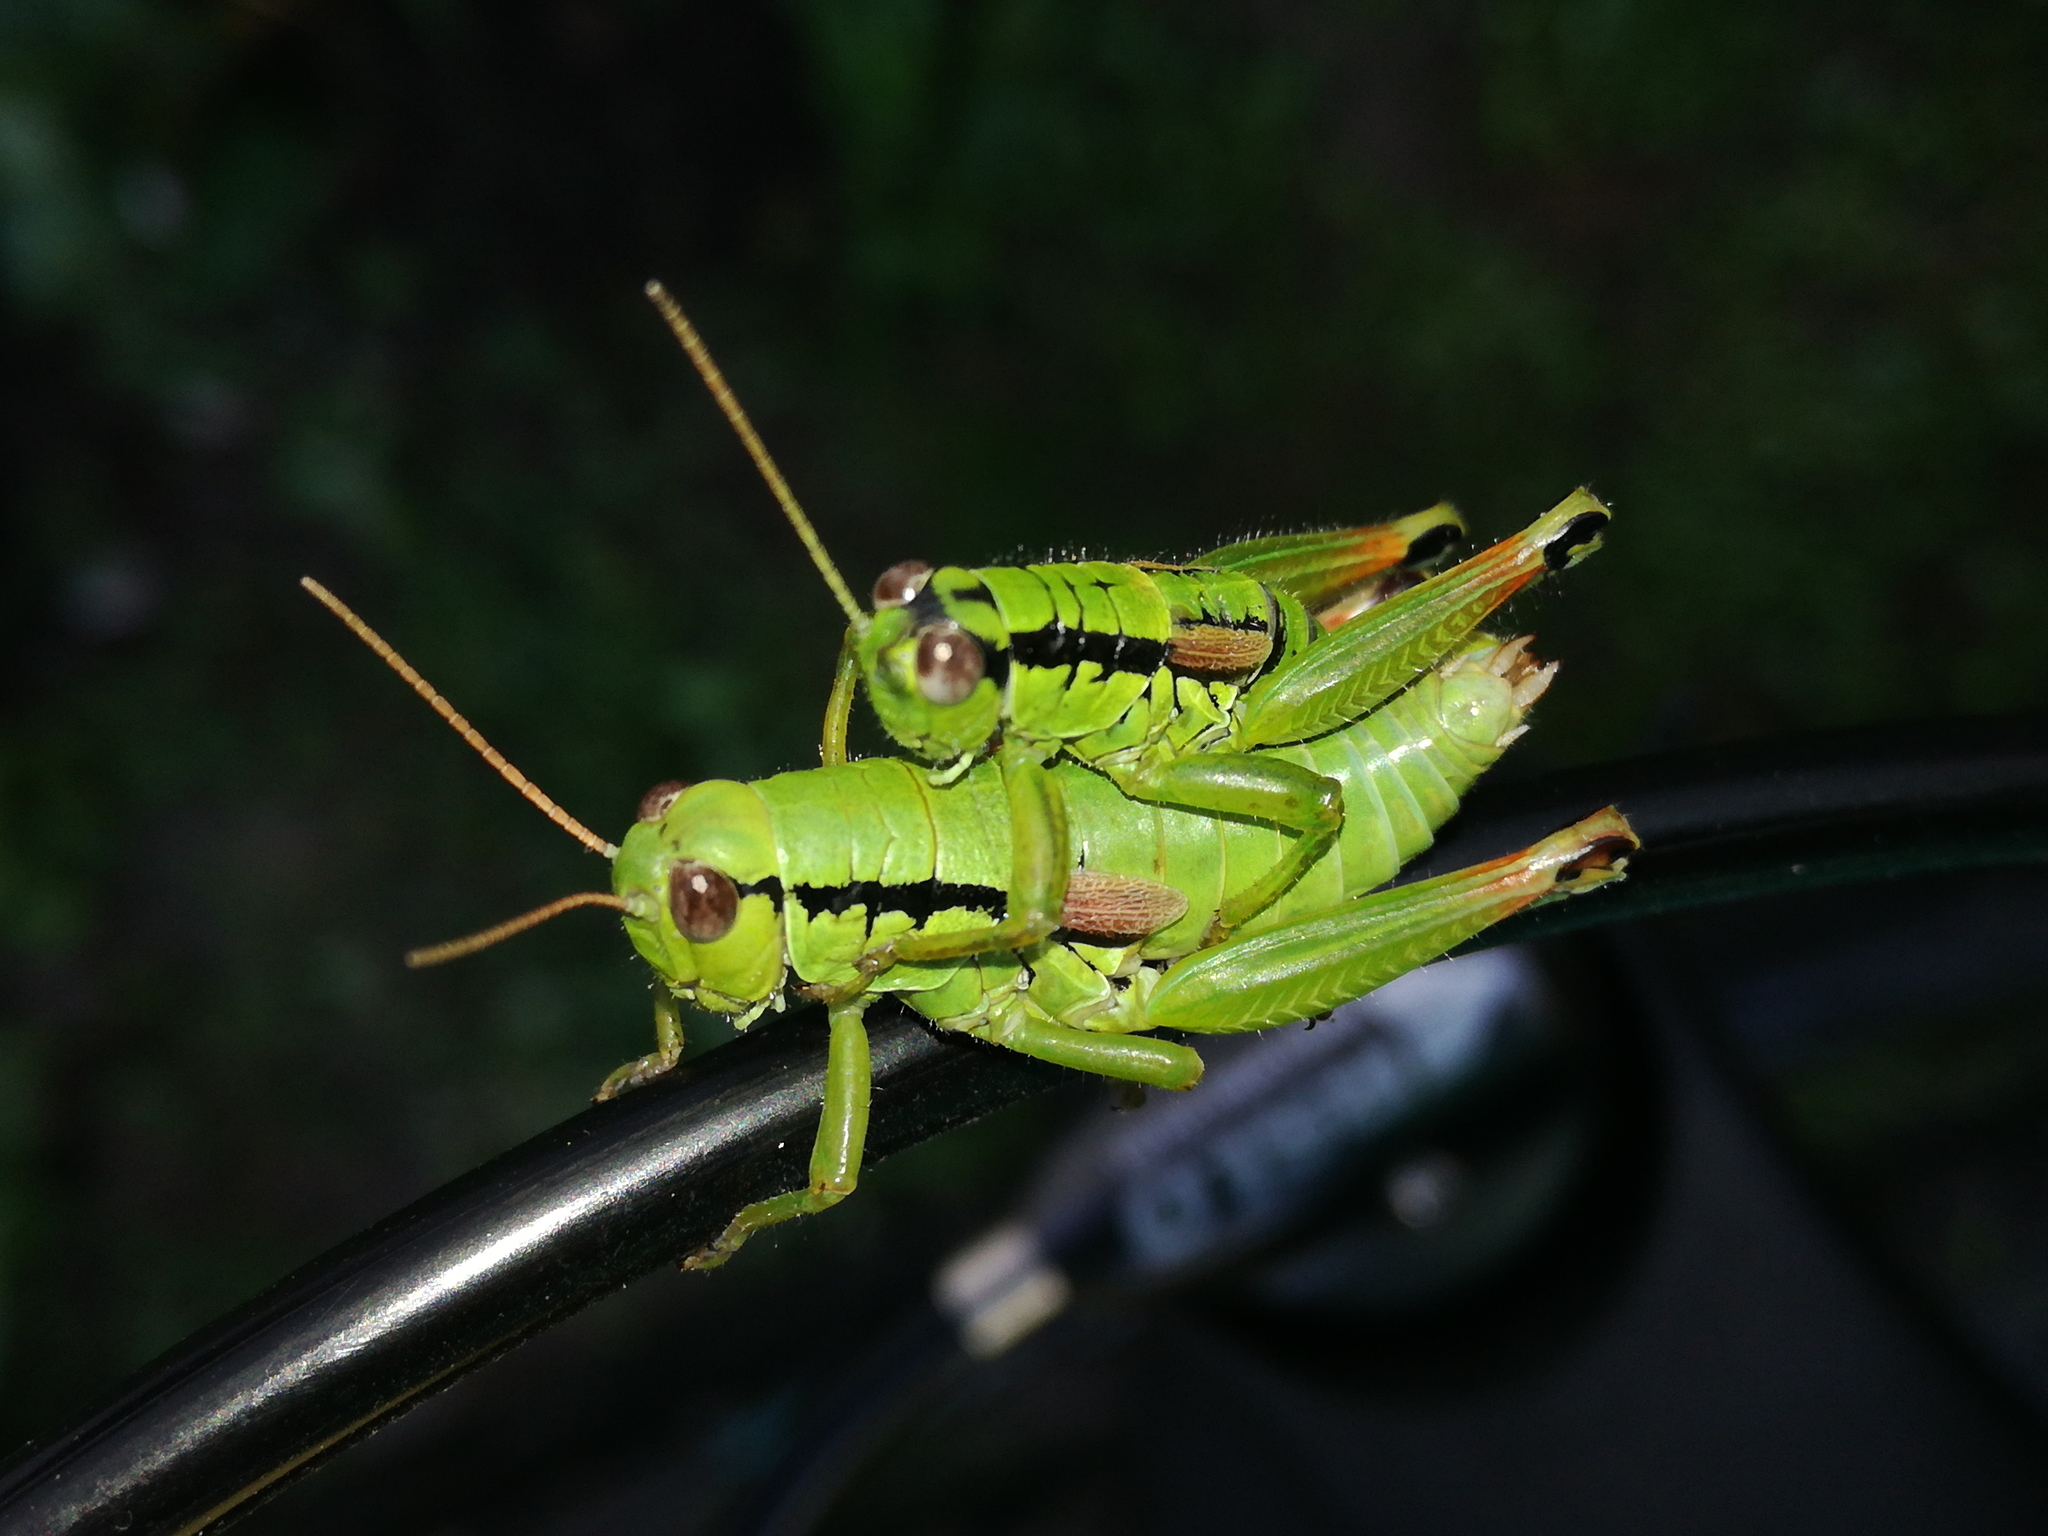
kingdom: Animalia
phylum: Arthropoda
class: Insecta
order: Orthoptera
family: Acrididae
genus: Pseudopodisma
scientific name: Pseudopodisma fieberi
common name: Fieber's mountain grasshopper
